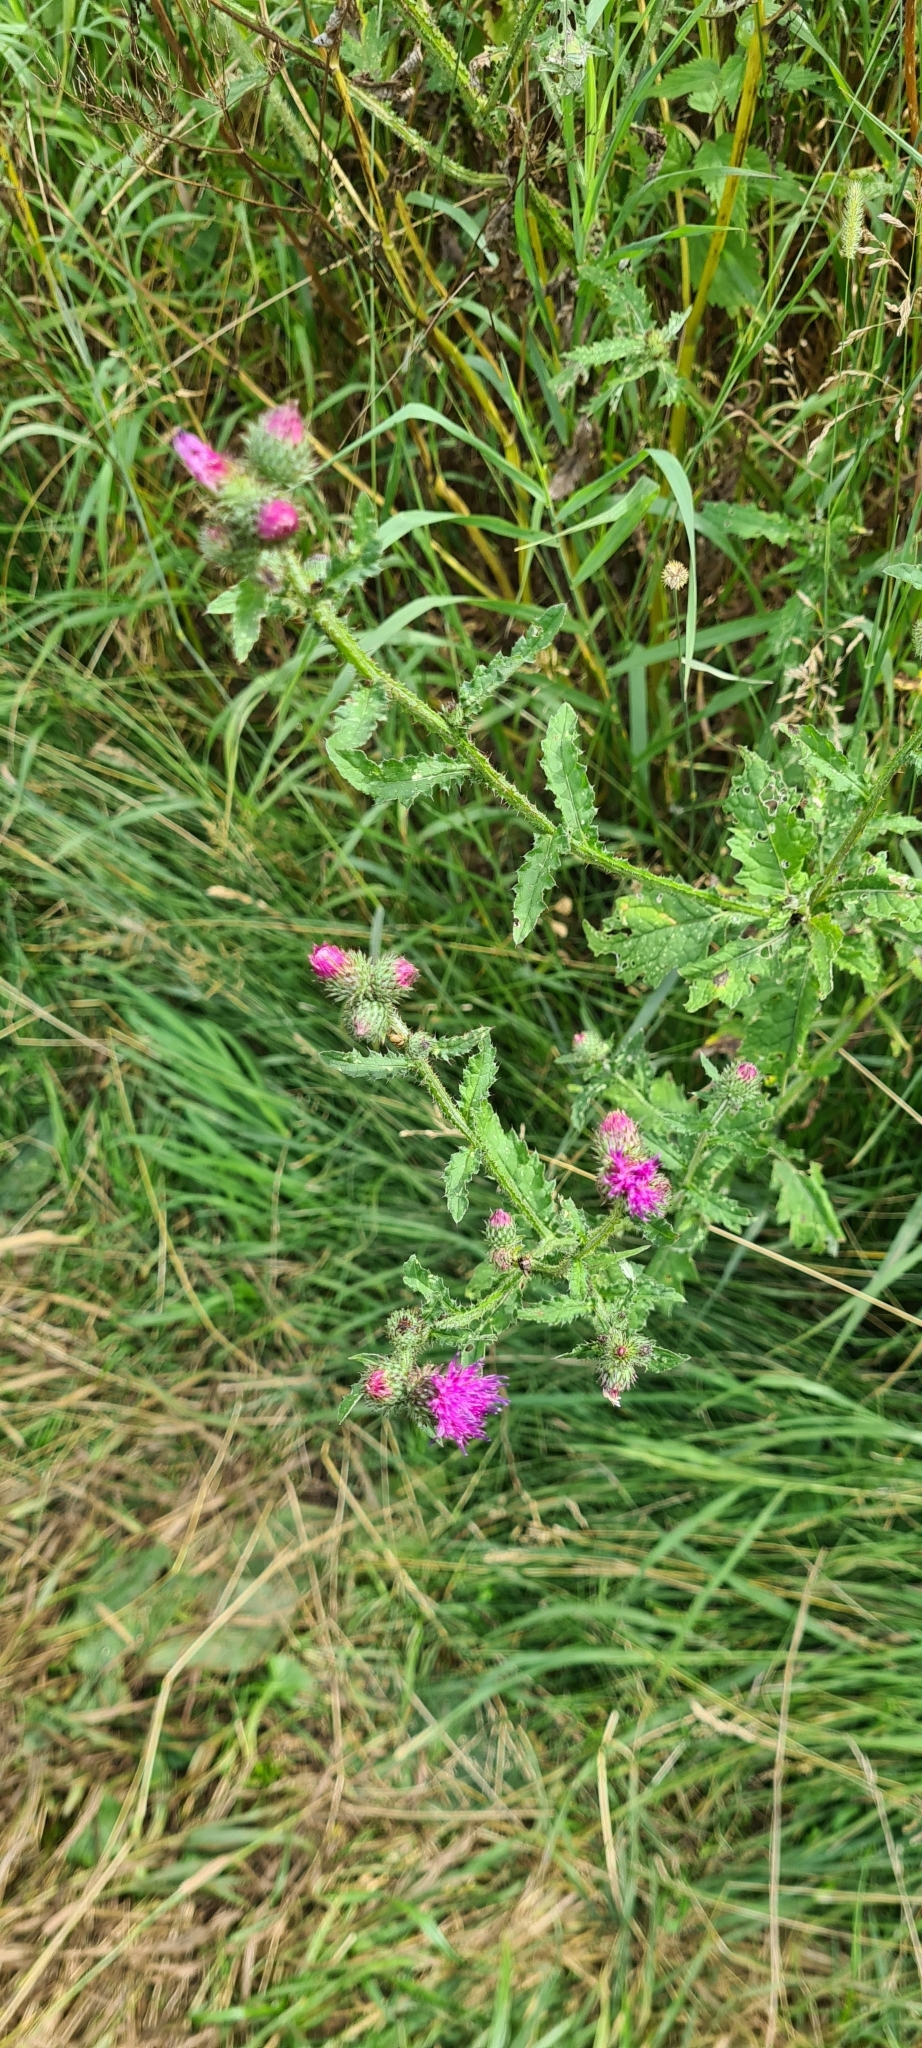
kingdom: Plantae
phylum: Tracheophyta
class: Magnoliopsida
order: Asterales
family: Asteraceae
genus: Carduus
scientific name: Carduus crispus
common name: Welted thistle
